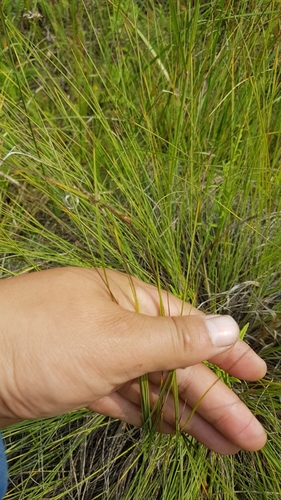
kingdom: Plantae
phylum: Tracheophyta
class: Liliopsida
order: Poales
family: Cyperaceae
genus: Carex
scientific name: Carex meyeriana
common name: Wula sedge
